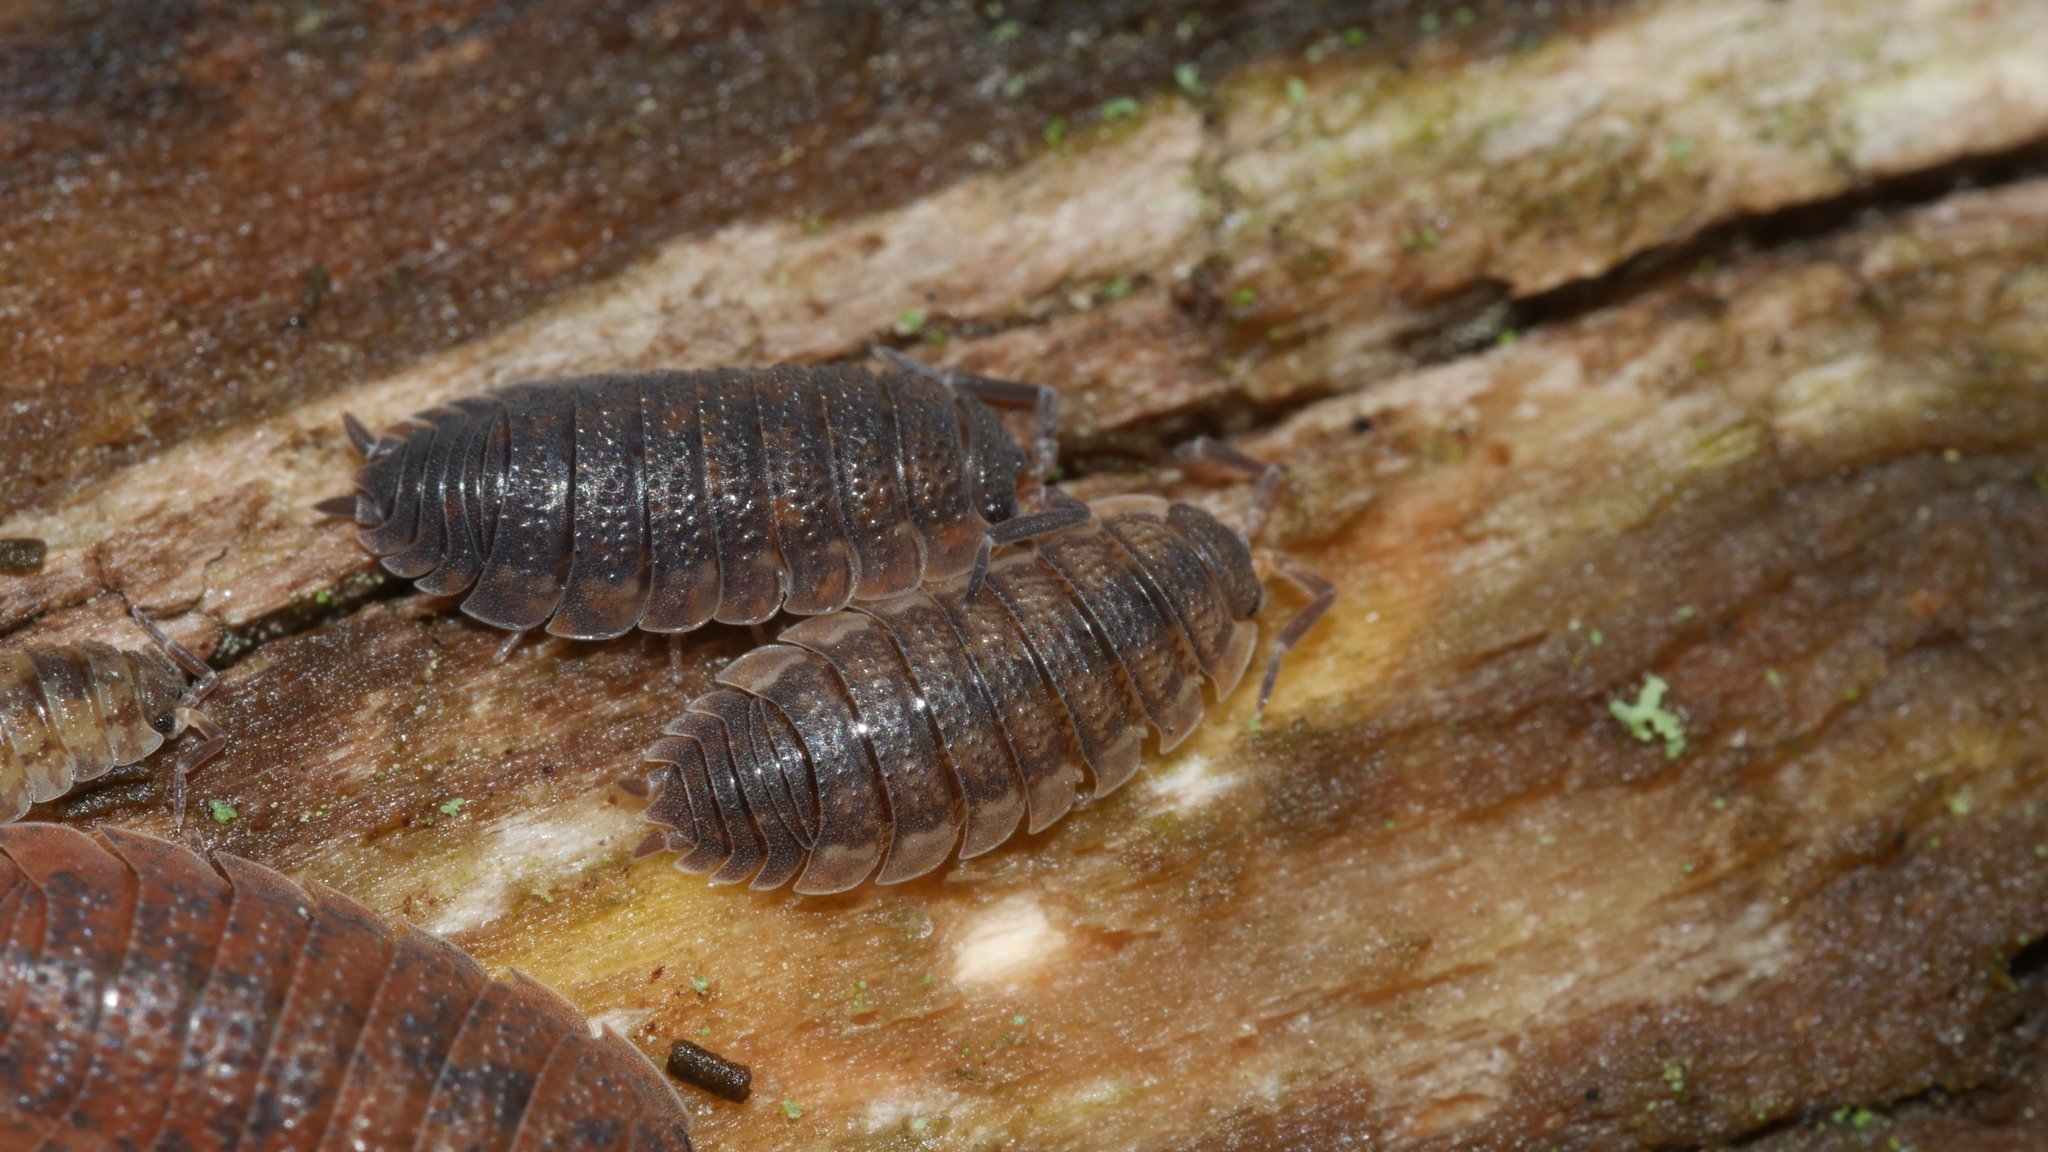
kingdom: Animalia
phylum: Arthropoda
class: Malacostraca
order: Isopoda
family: Porcellionidae
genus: Porcellio
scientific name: Porcellio scaber
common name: Common rough woodlouse
